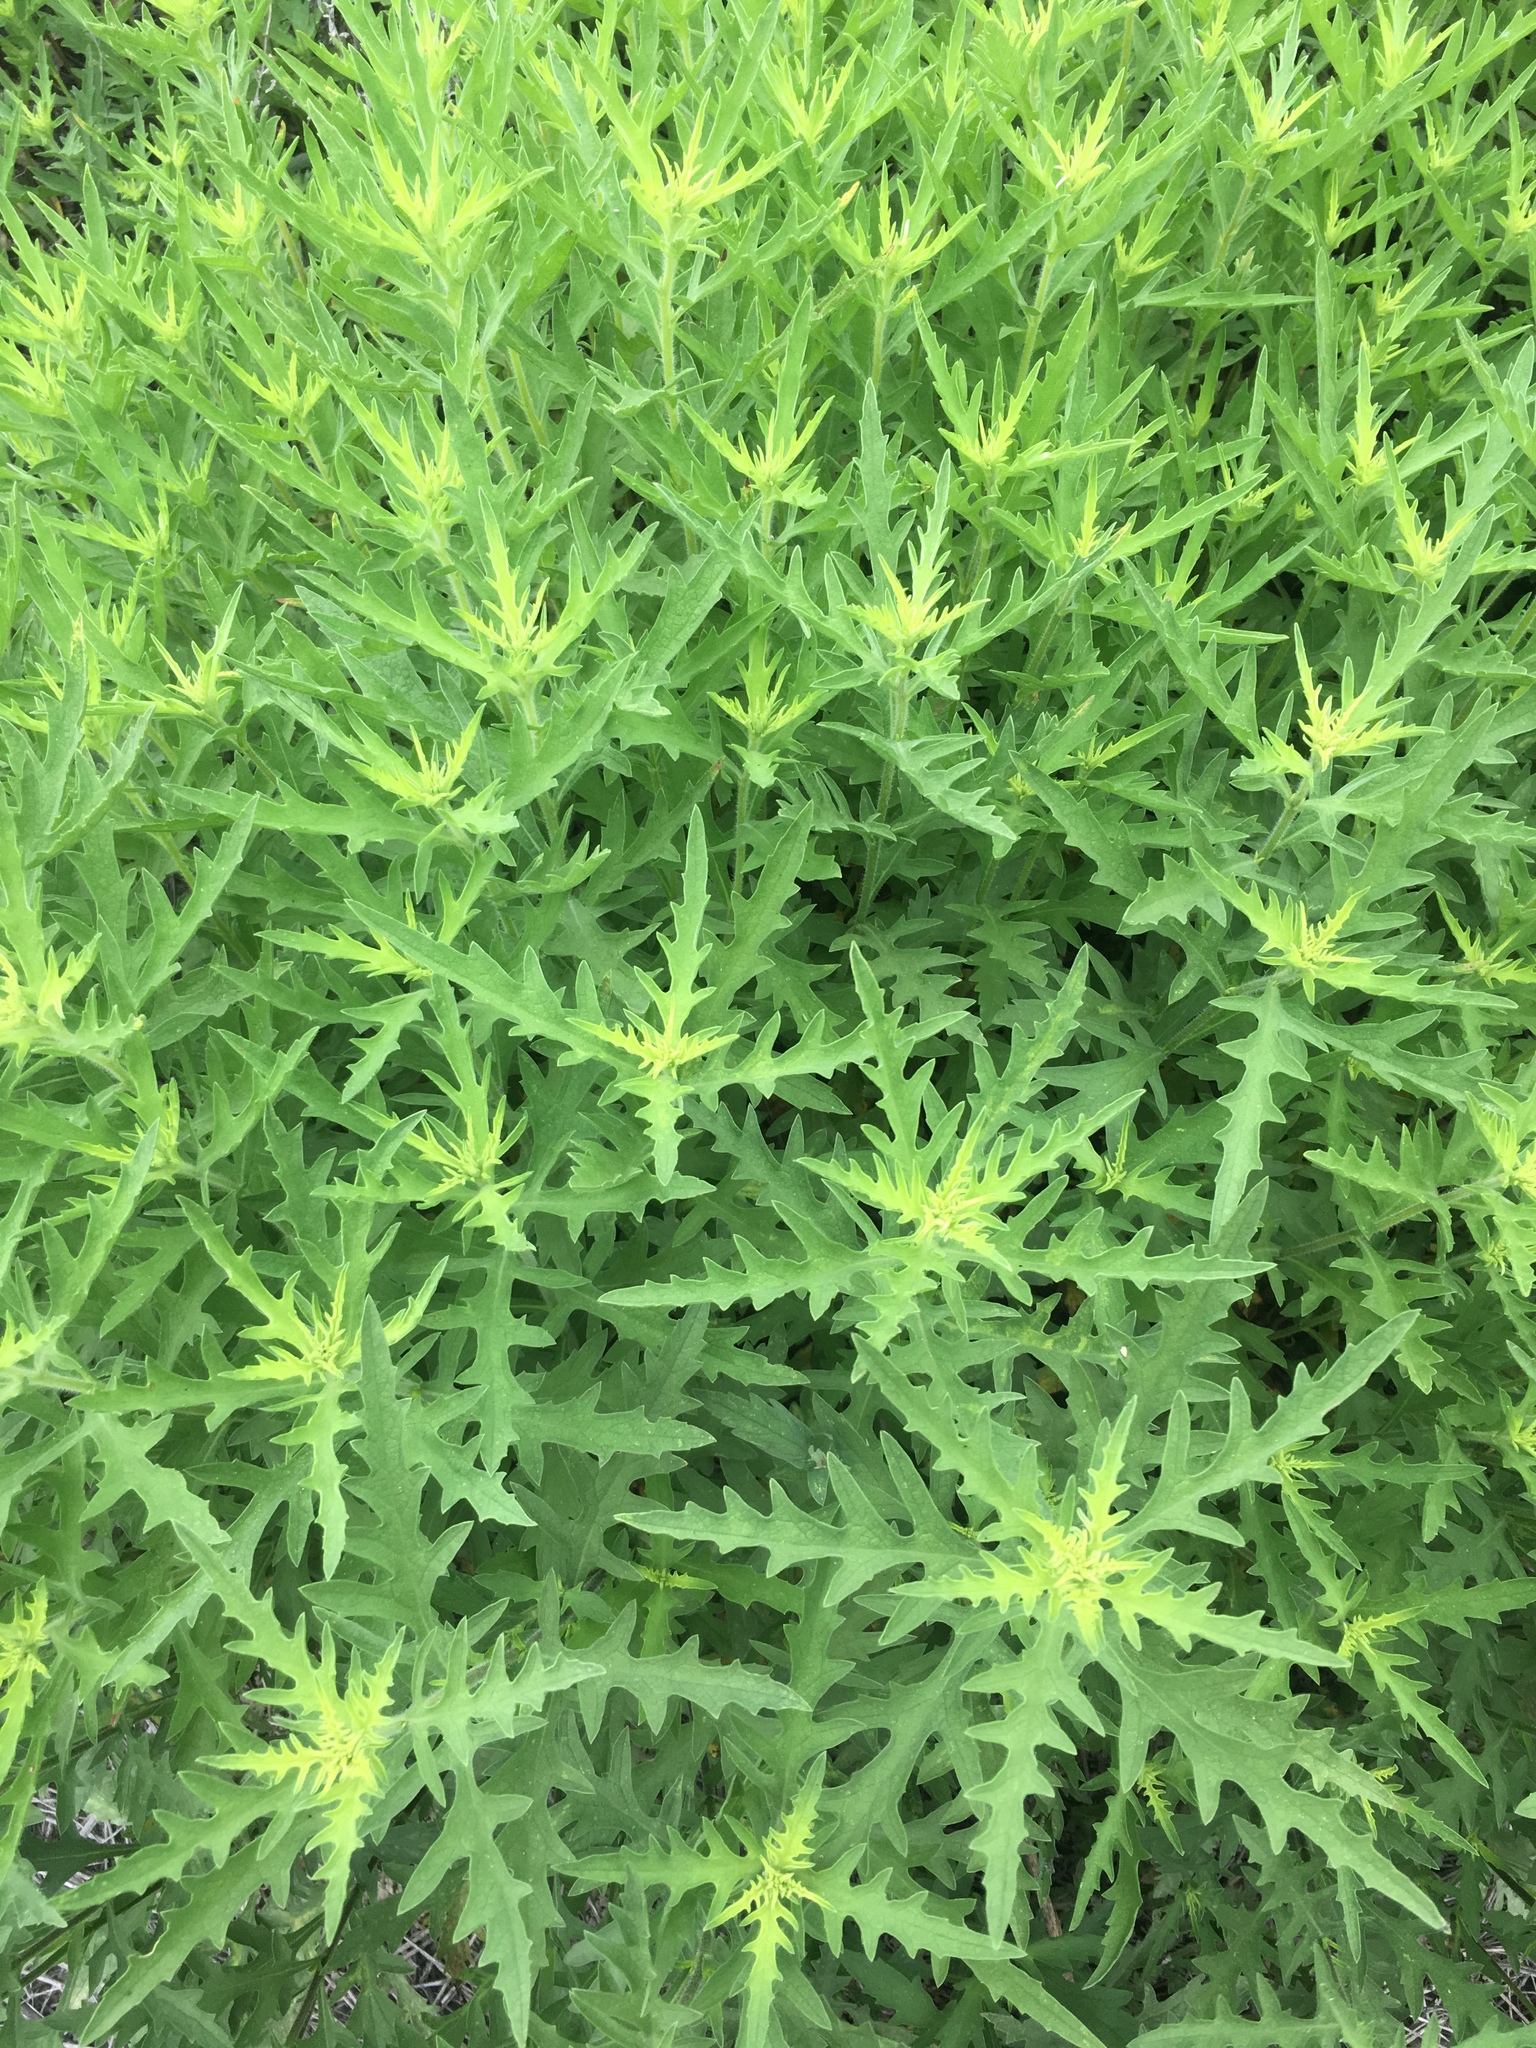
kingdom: Plantae
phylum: Tracheophyta
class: Magnoliopsida
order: Asterales
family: Asteraceae
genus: Ambrosia
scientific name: Ambrosia psilostachya
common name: Perennial ragweed
